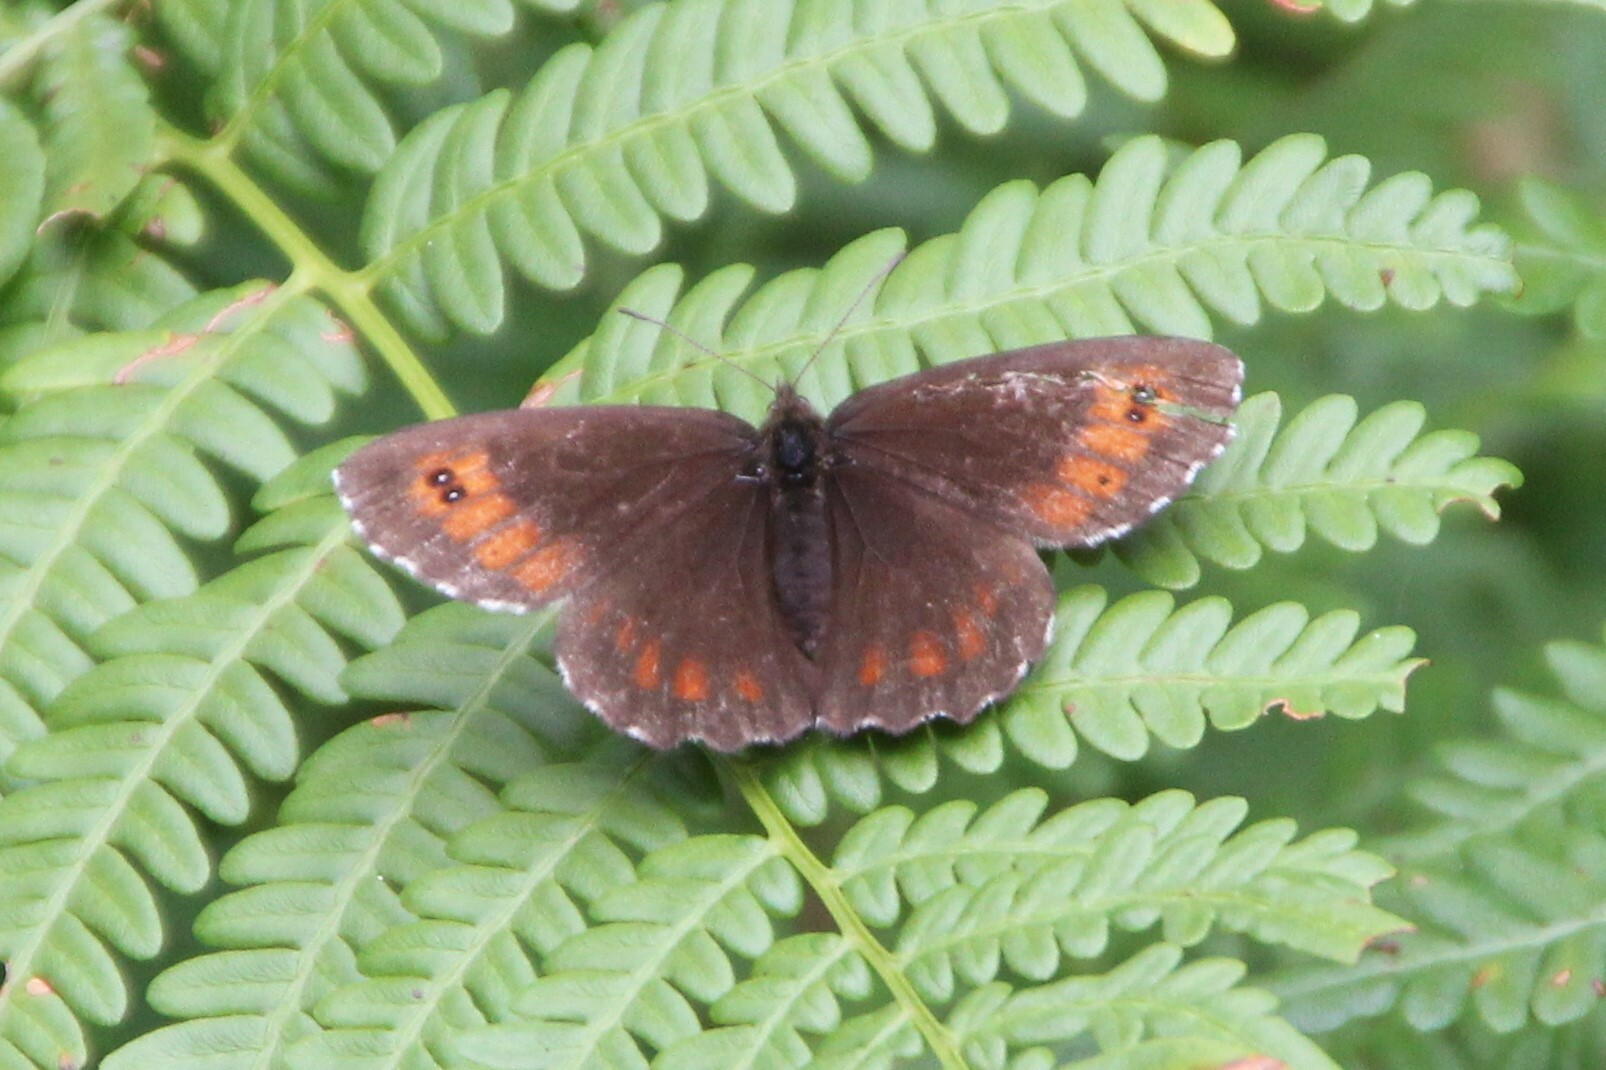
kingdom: Animalia
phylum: Arthropoda
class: Insecta
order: Lepidoptera
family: Nymphalidae
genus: Erebia
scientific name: Erebia ligea
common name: Arran brown
